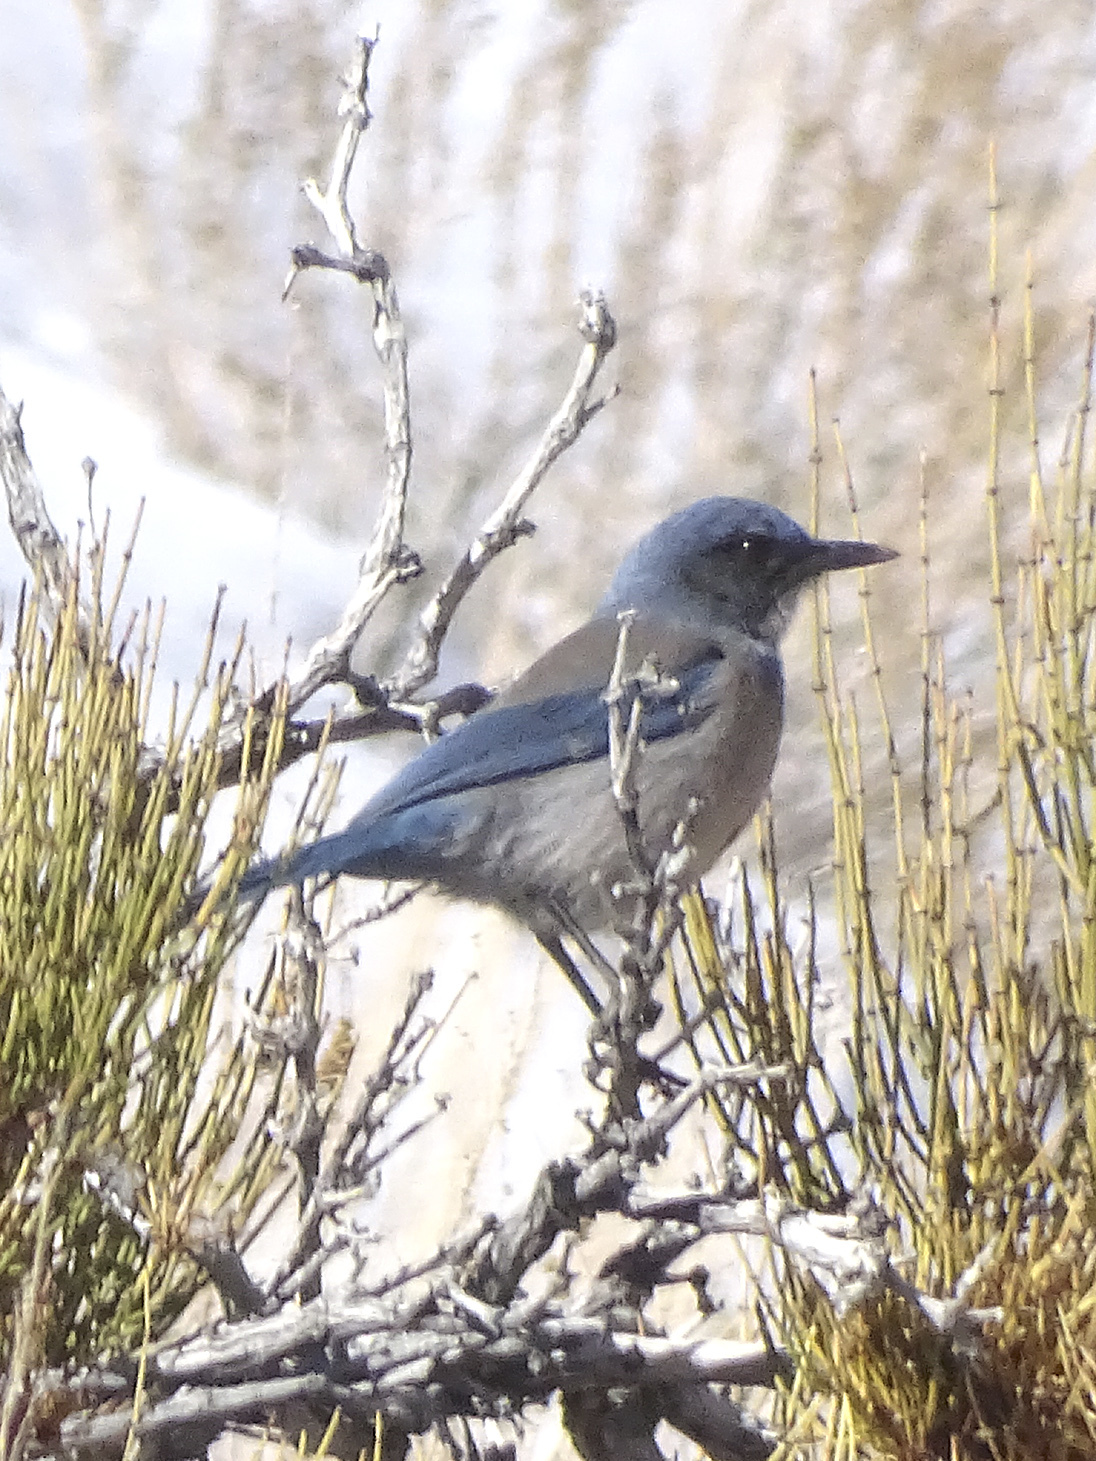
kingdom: Animalia
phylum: Chordata
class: Aves
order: Passeriformes
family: Corvidae
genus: Aphelocoma
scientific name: Aphelocoma woodhouseii
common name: Woodhouse's scrub-jay
